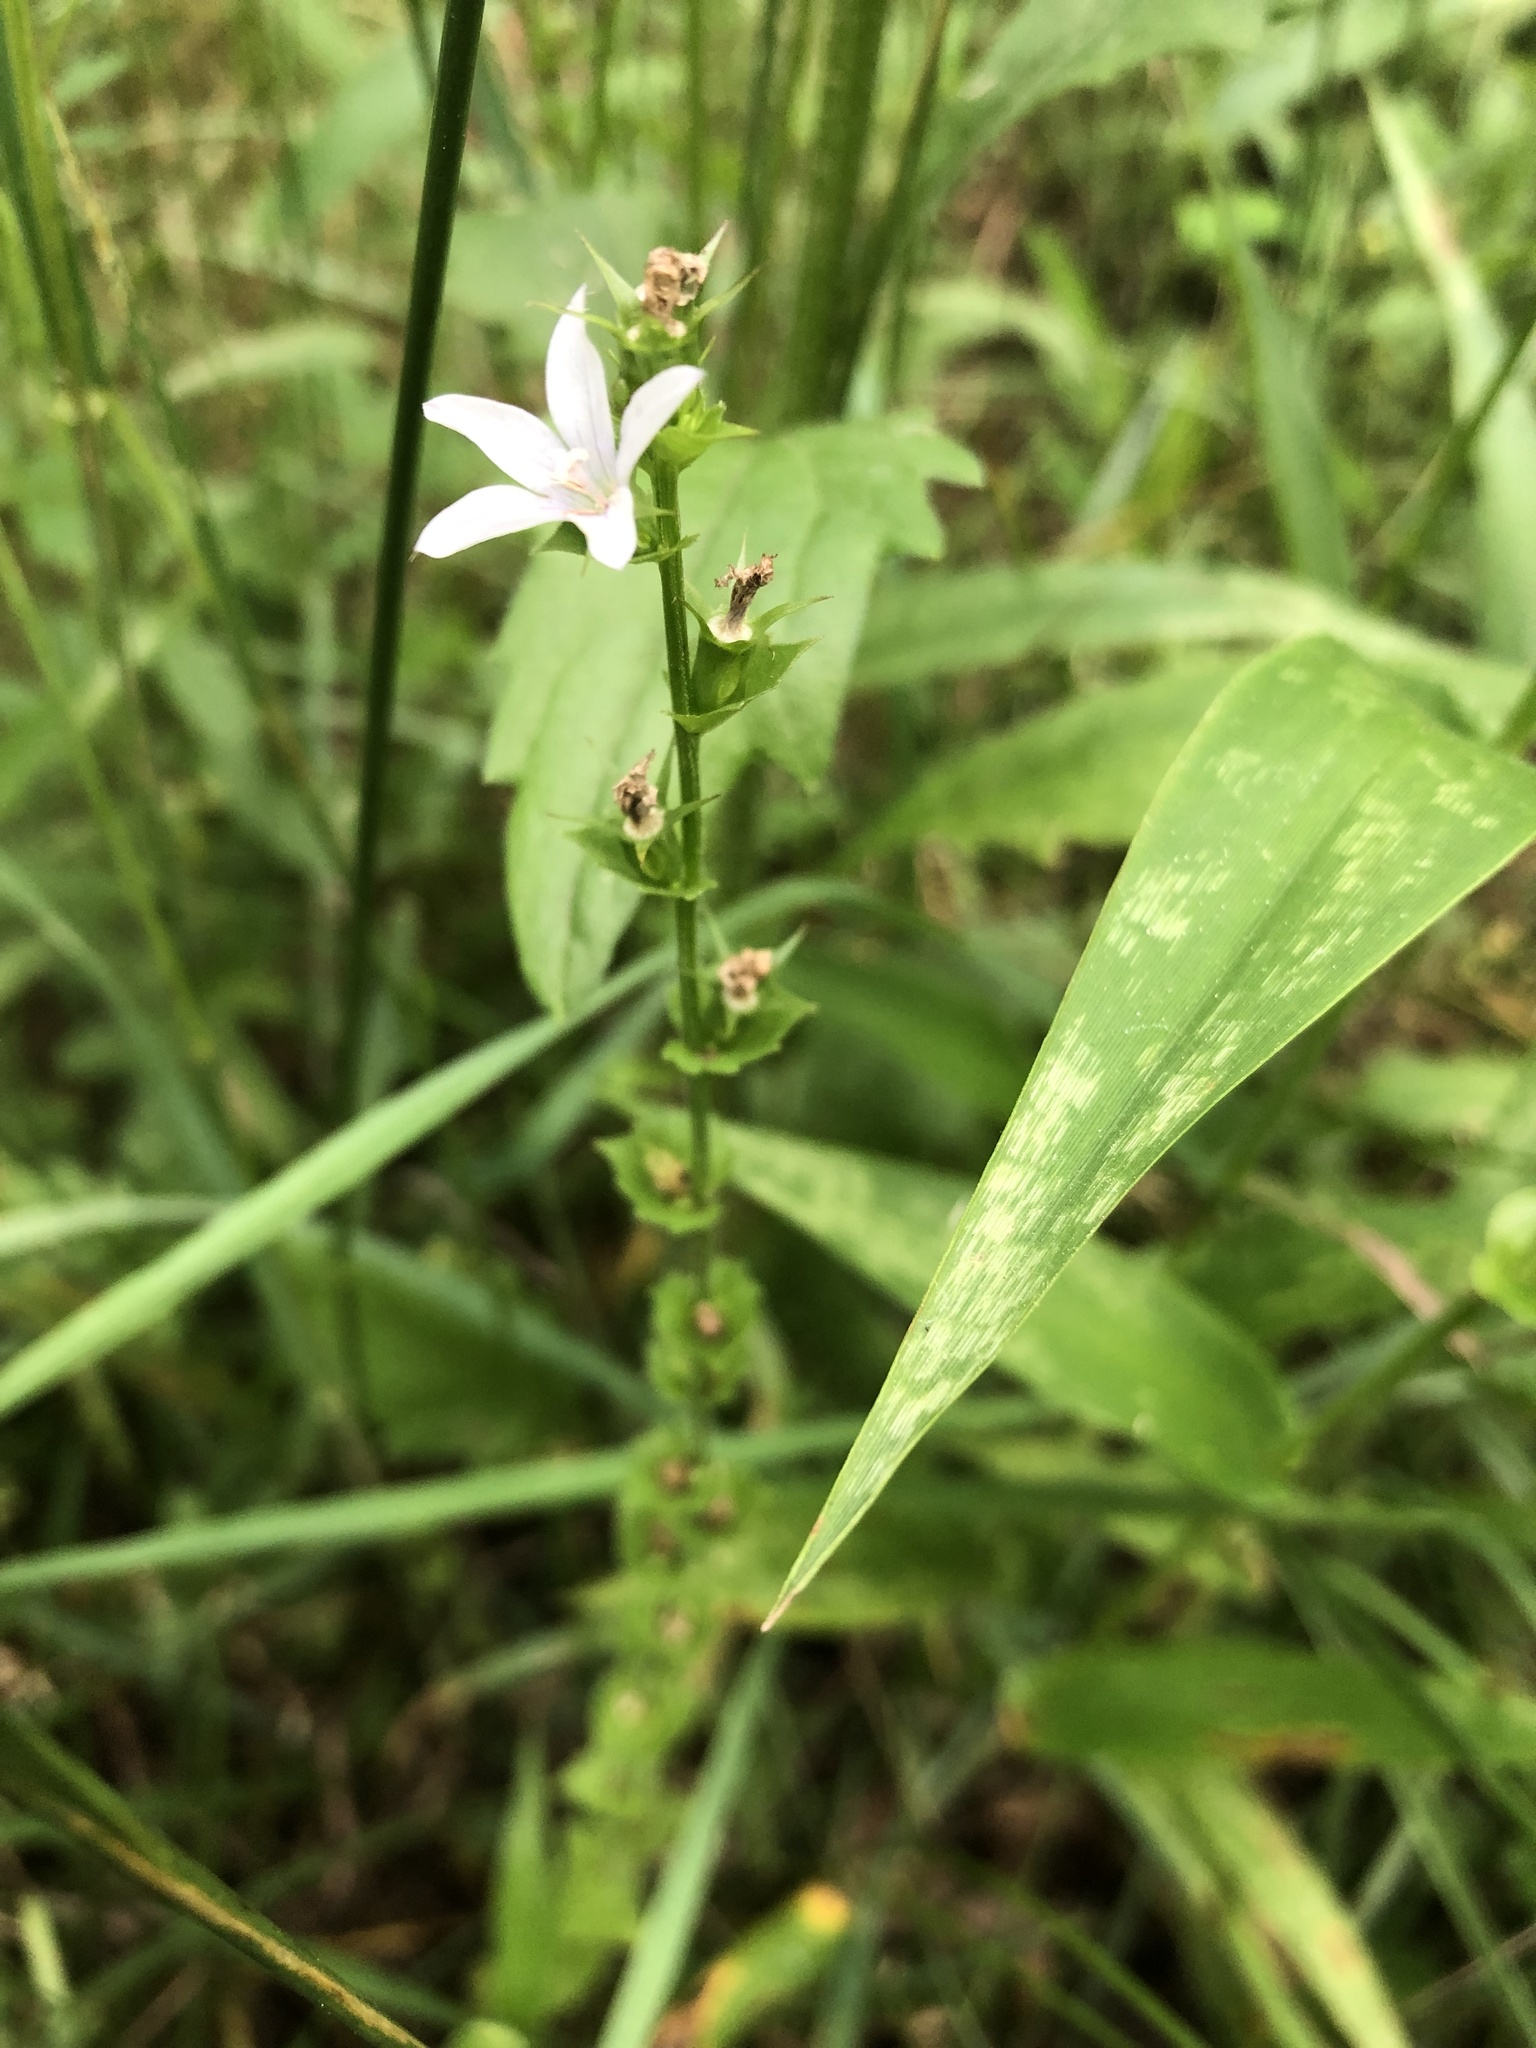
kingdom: Plantae
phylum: Tracheophyta
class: Magnoliopsida
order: Asterales
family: Campanulaceae
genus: Triodanis
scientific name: Triodanis perfoliata
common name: Clasping venus' looking-glass
